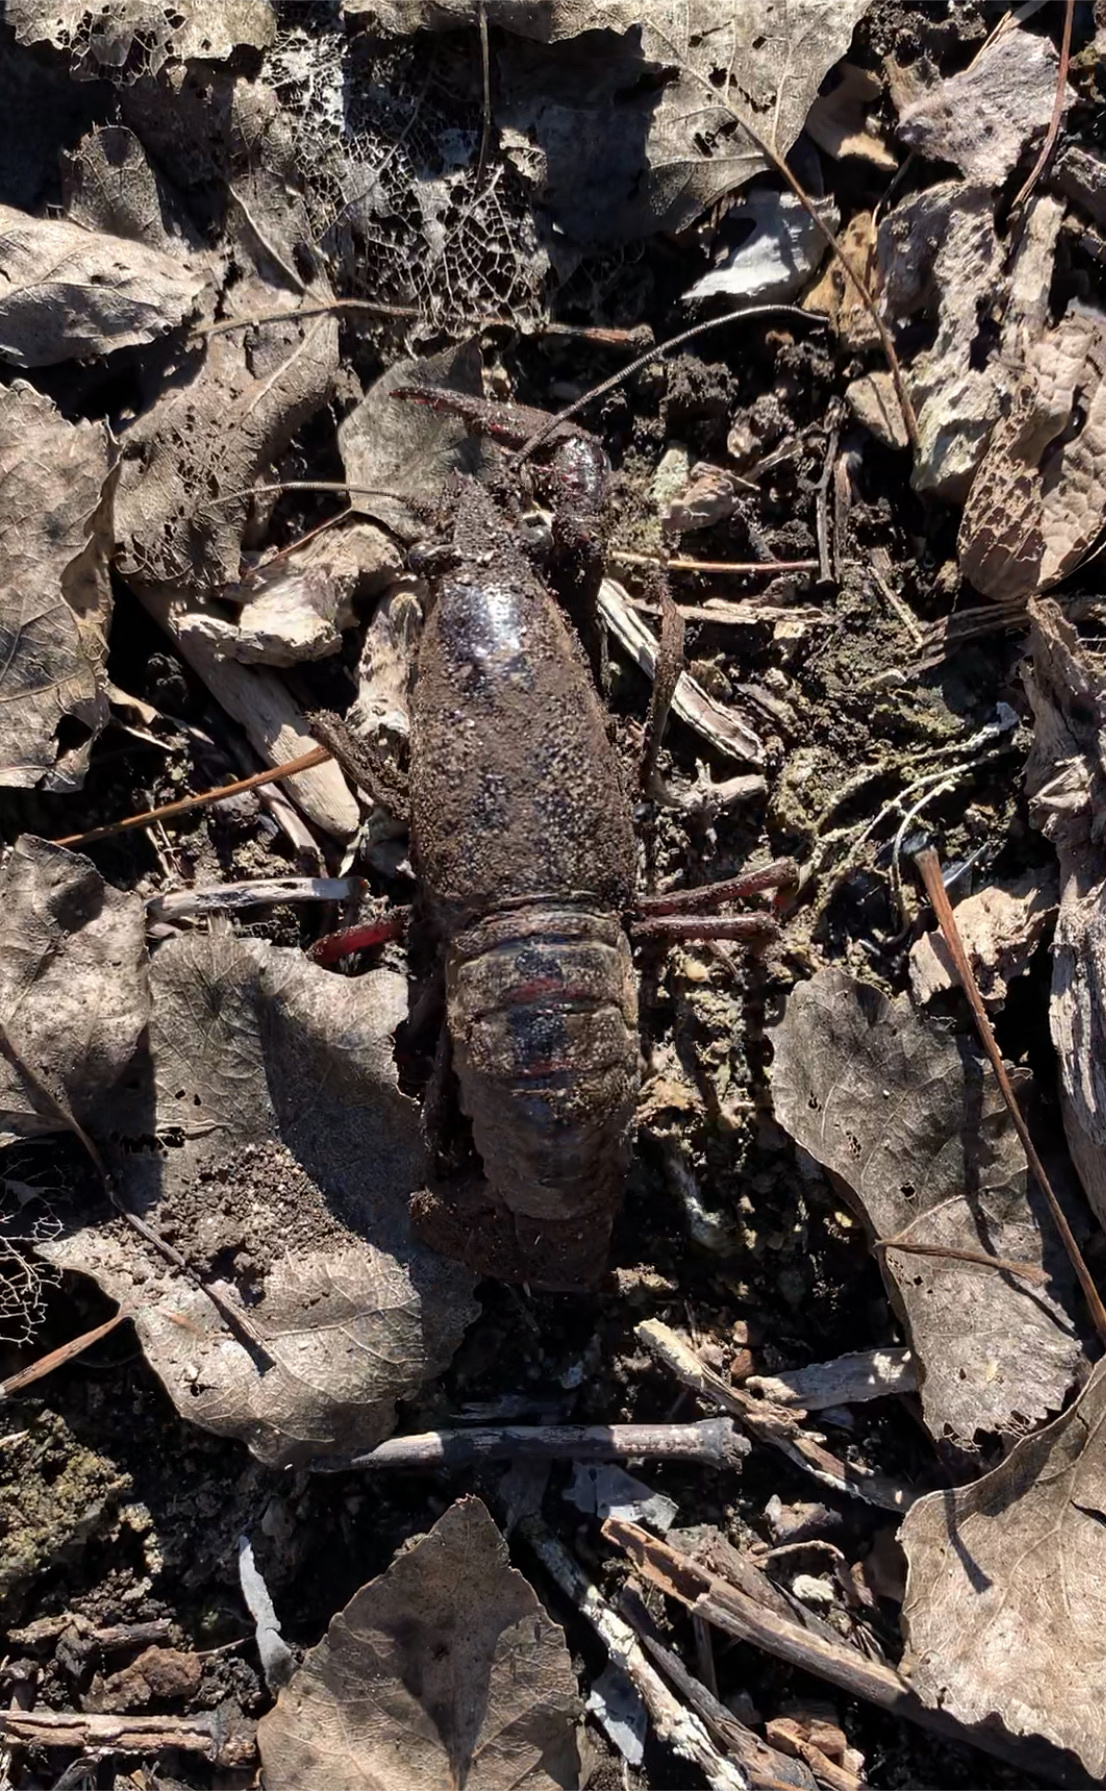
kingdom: Animalia
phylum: Arthropoda
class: Malacostraca
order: Decapoda
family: Cambaridae
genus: Procambarus
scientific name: Procambarus clarkii
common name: Red swamp crayfish
